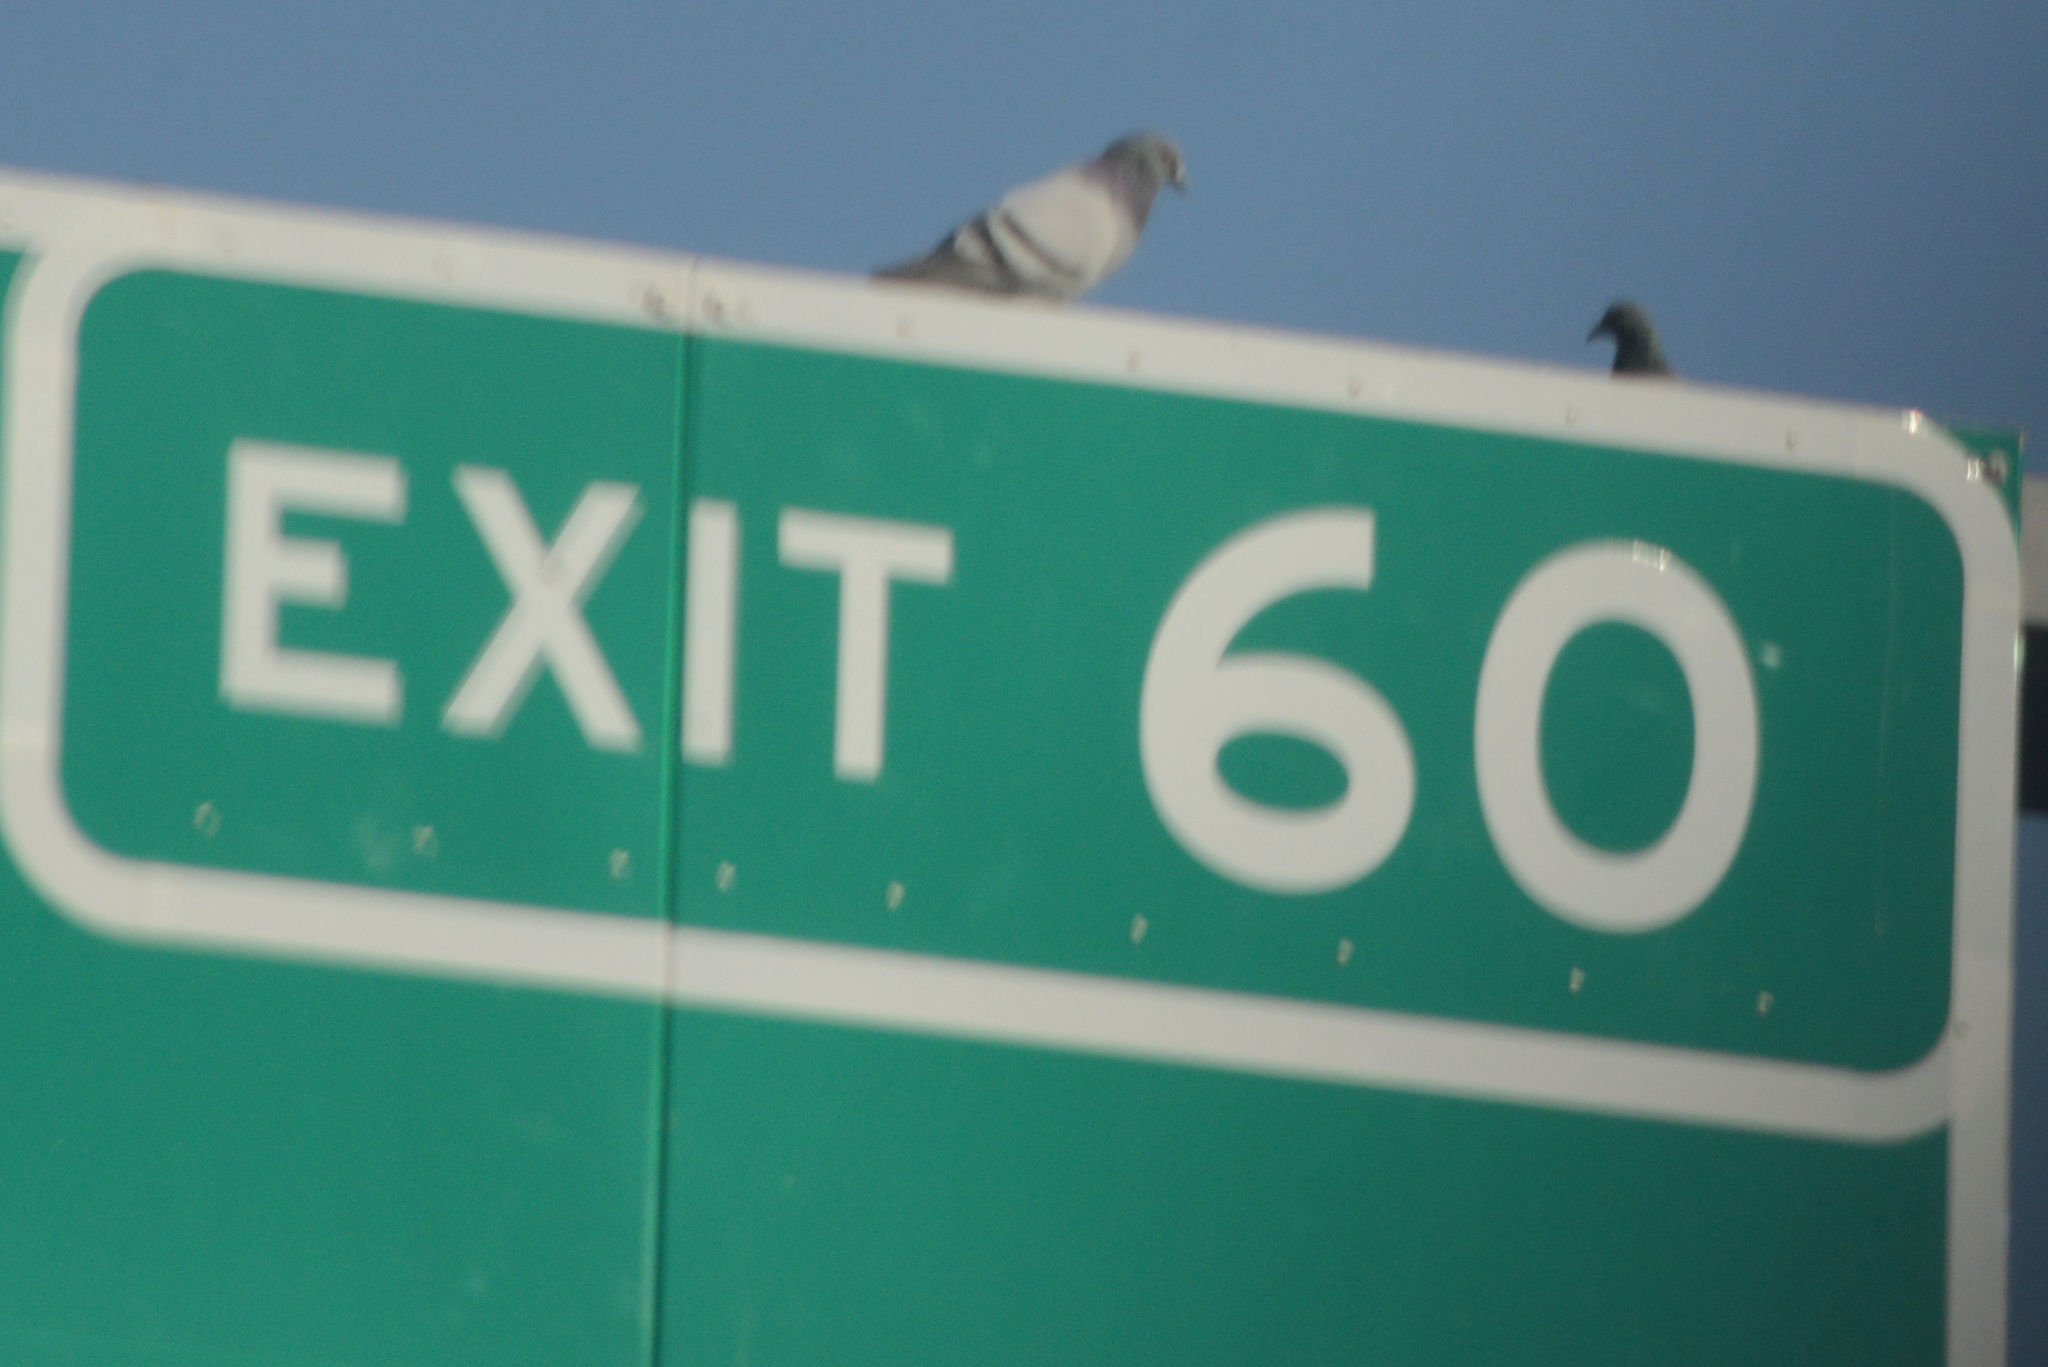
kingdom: Animalia
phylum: Chordata
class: Aves
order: Columbiformes
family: Columbidae
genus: Columba
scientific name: Columba livia
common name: Rock pigeon
